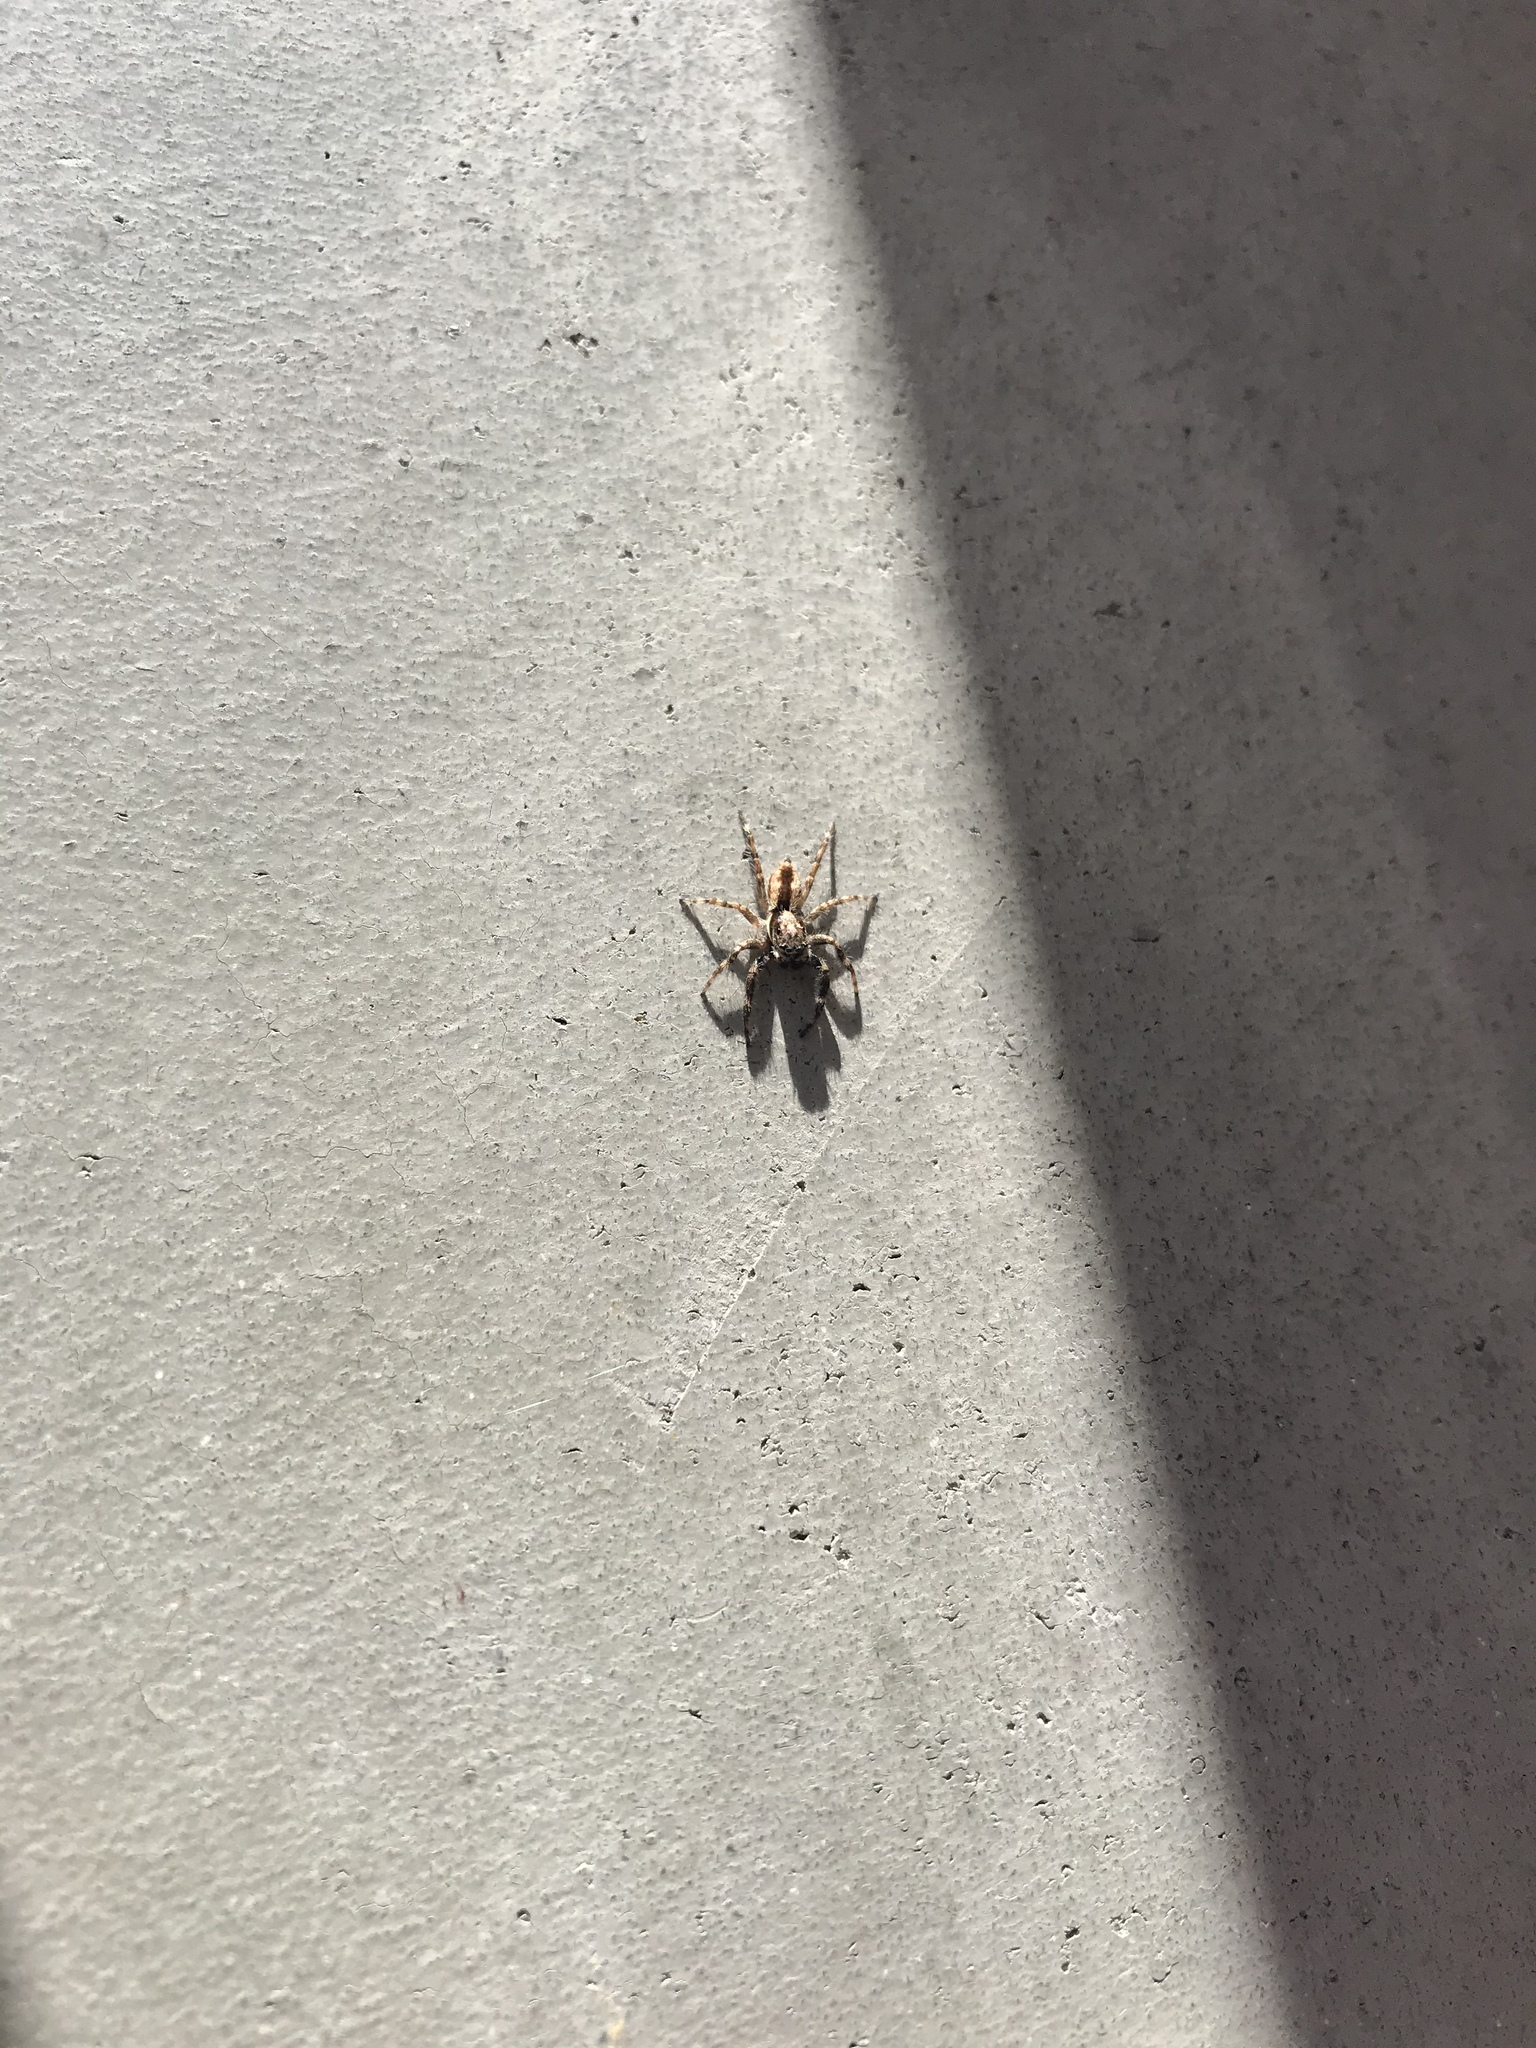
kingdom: Animalia
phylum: Arthropoda
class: Arachnida
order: Araneae
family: Salticidae
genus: Menemerus
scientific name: Menemerus bivittatus
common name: Gray wall jumper
